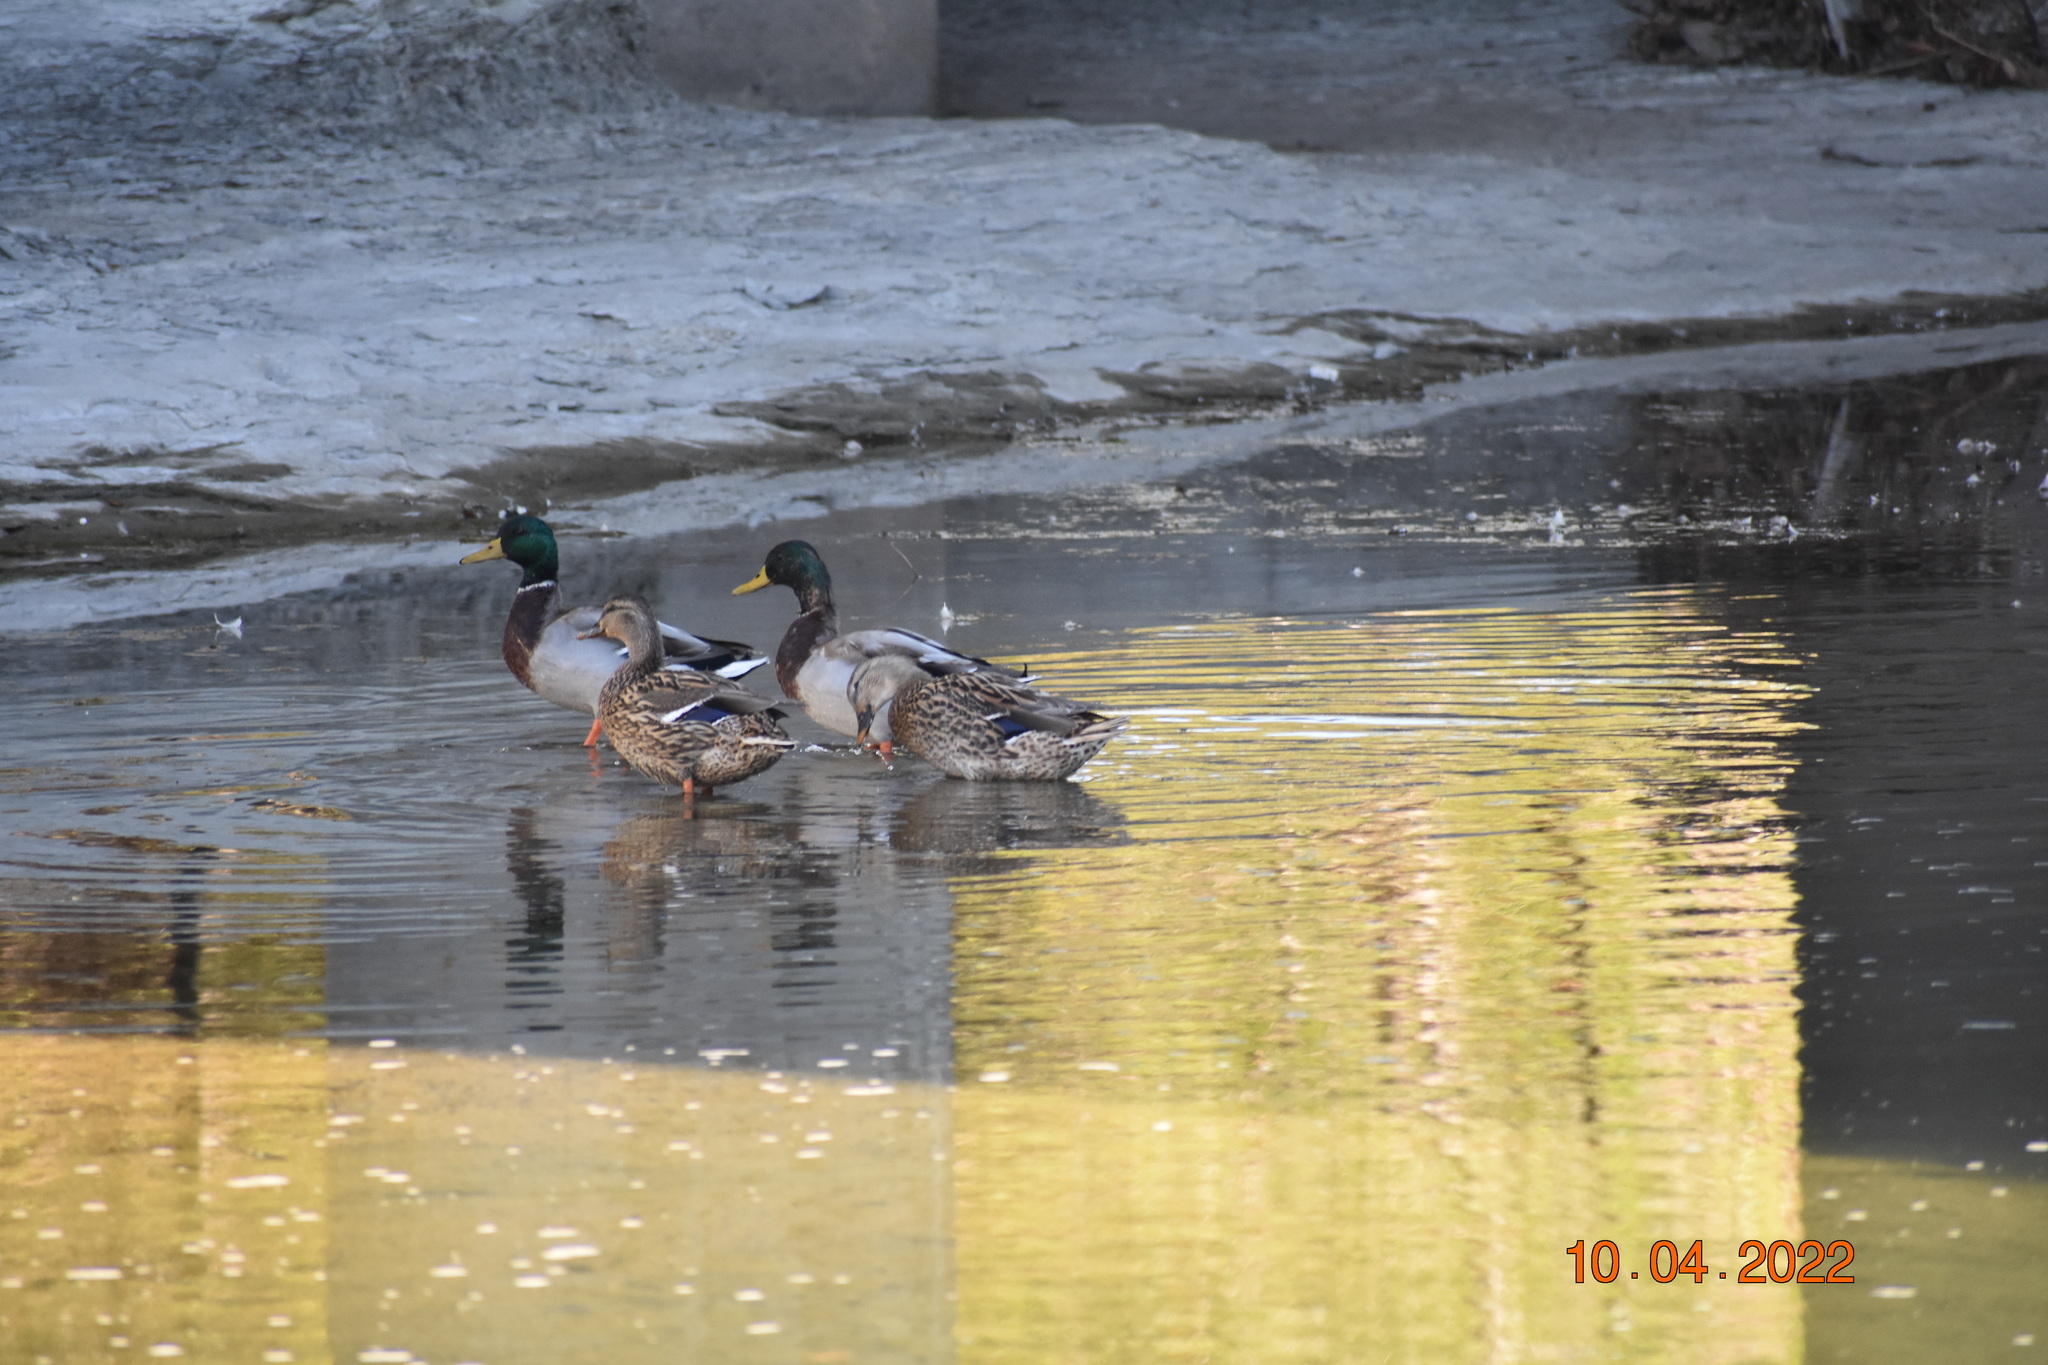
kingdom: Animalia
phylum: Chordata
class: Aves
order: Anseriformes
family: Anatidae
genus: Anas
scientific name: Anas platyrhynchos
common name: Mallard
